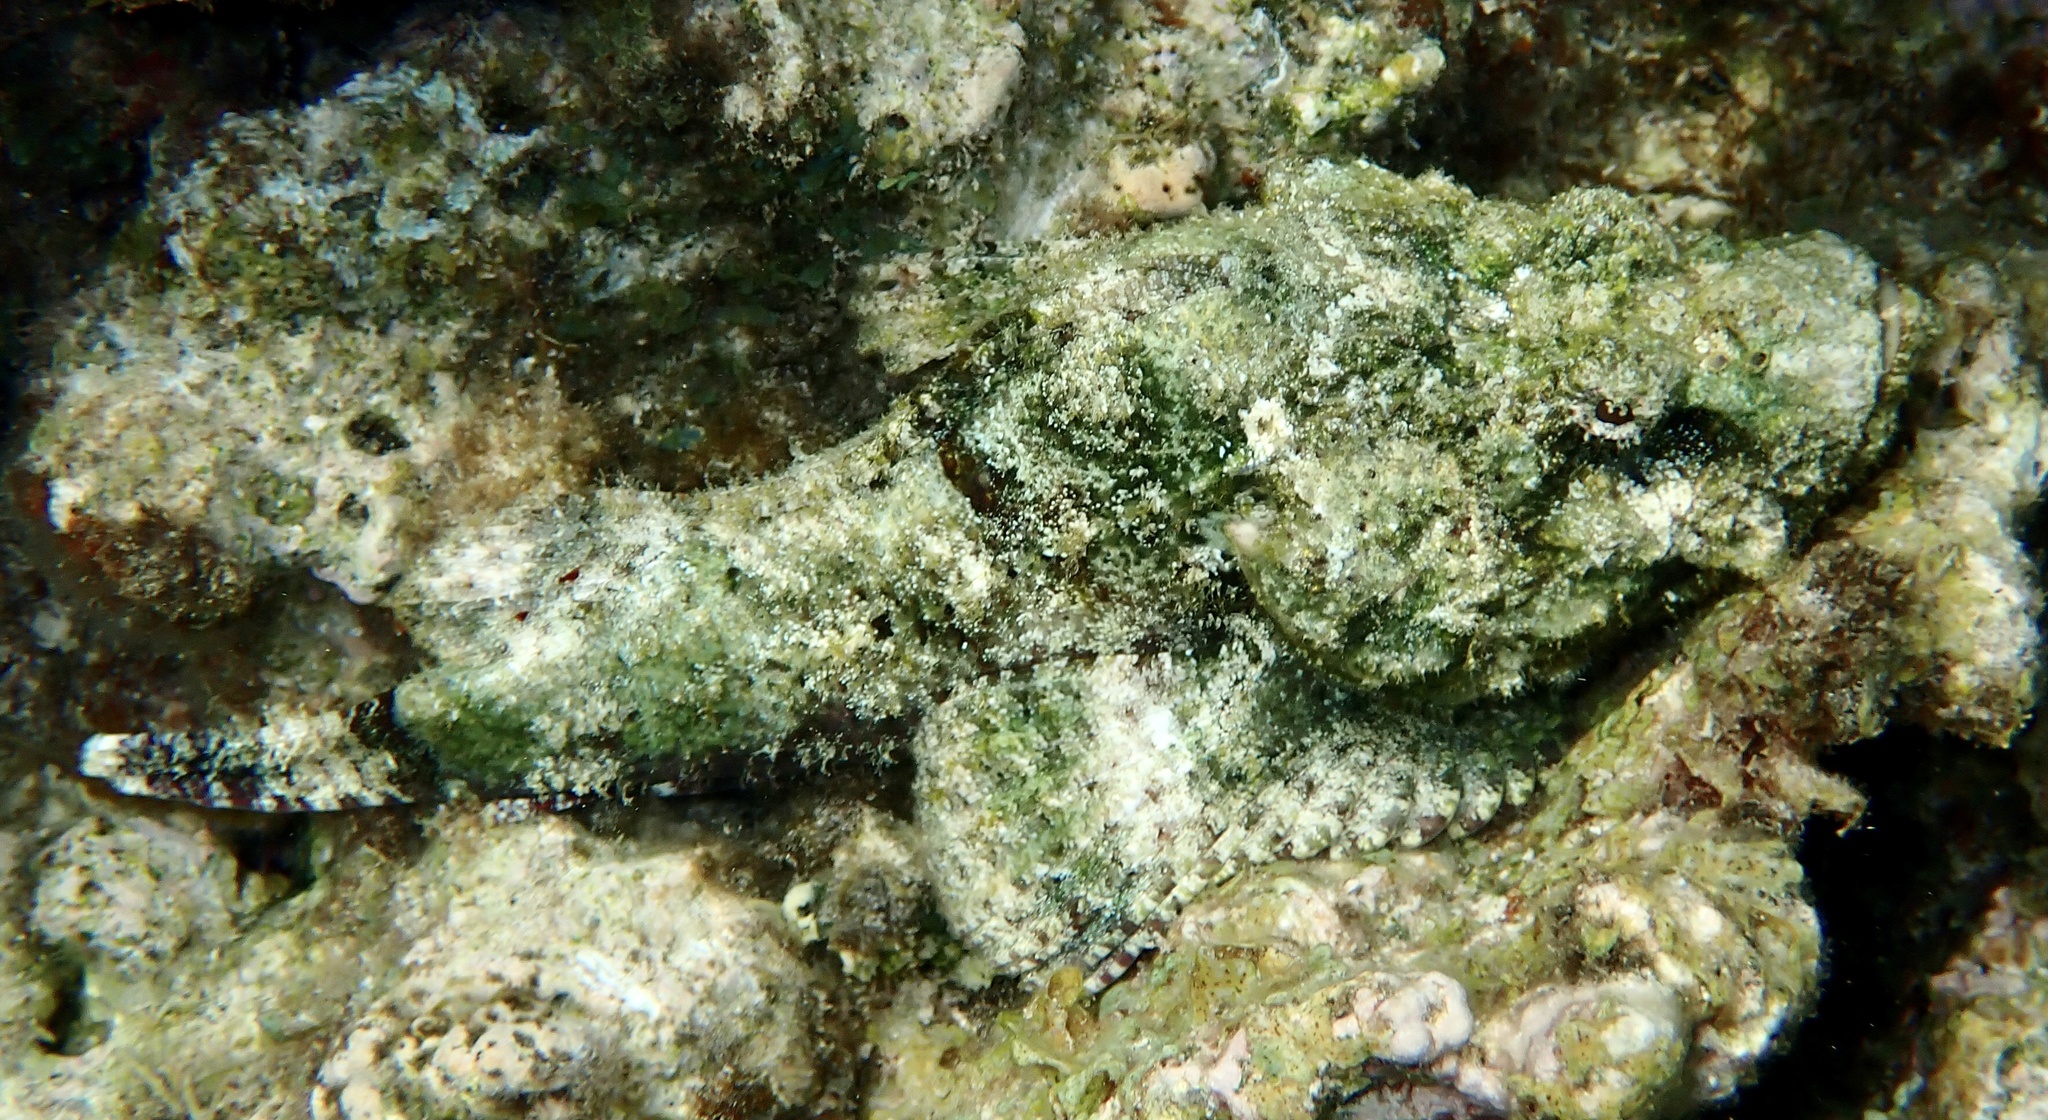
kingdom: Animalia
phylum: Chordata
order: Scorpaeniformes
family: Scorpaenidae
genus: Scorpaenopsis
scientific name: Scorpaenopsis diabolus
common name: False stonefish
